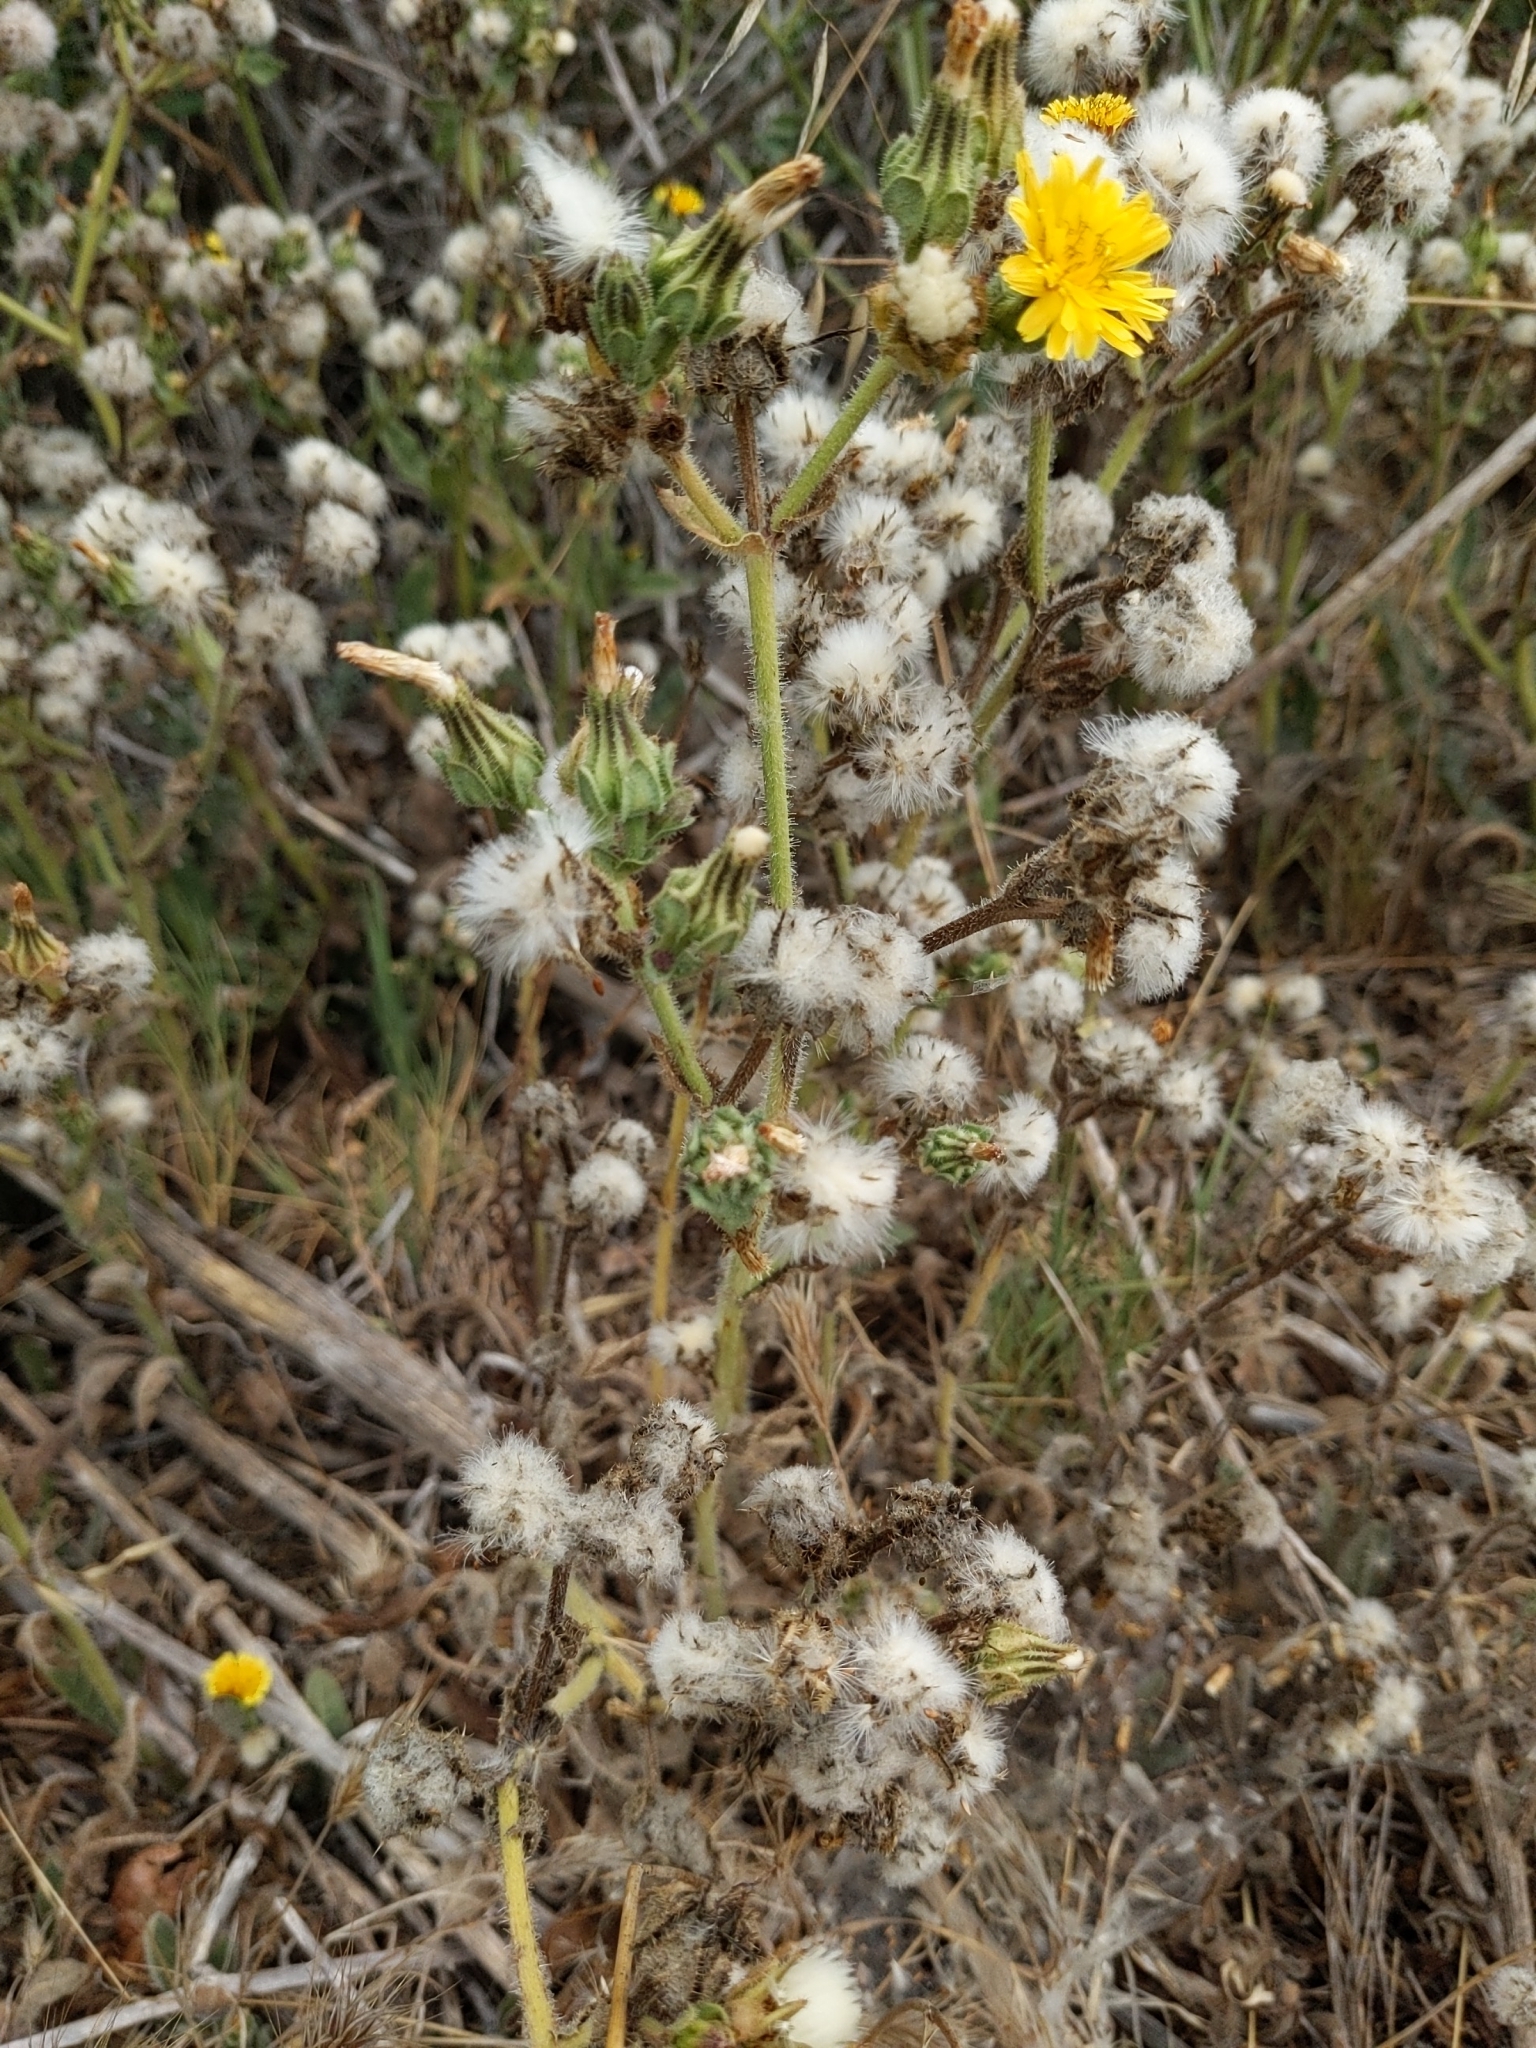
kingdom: Plantae
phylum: Tracheophyta
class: Magnoliopsida
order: Asterales
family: Asteraceae
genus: Helminthotheca
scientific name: Helminthotheca echioides
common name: Ox-tongue
